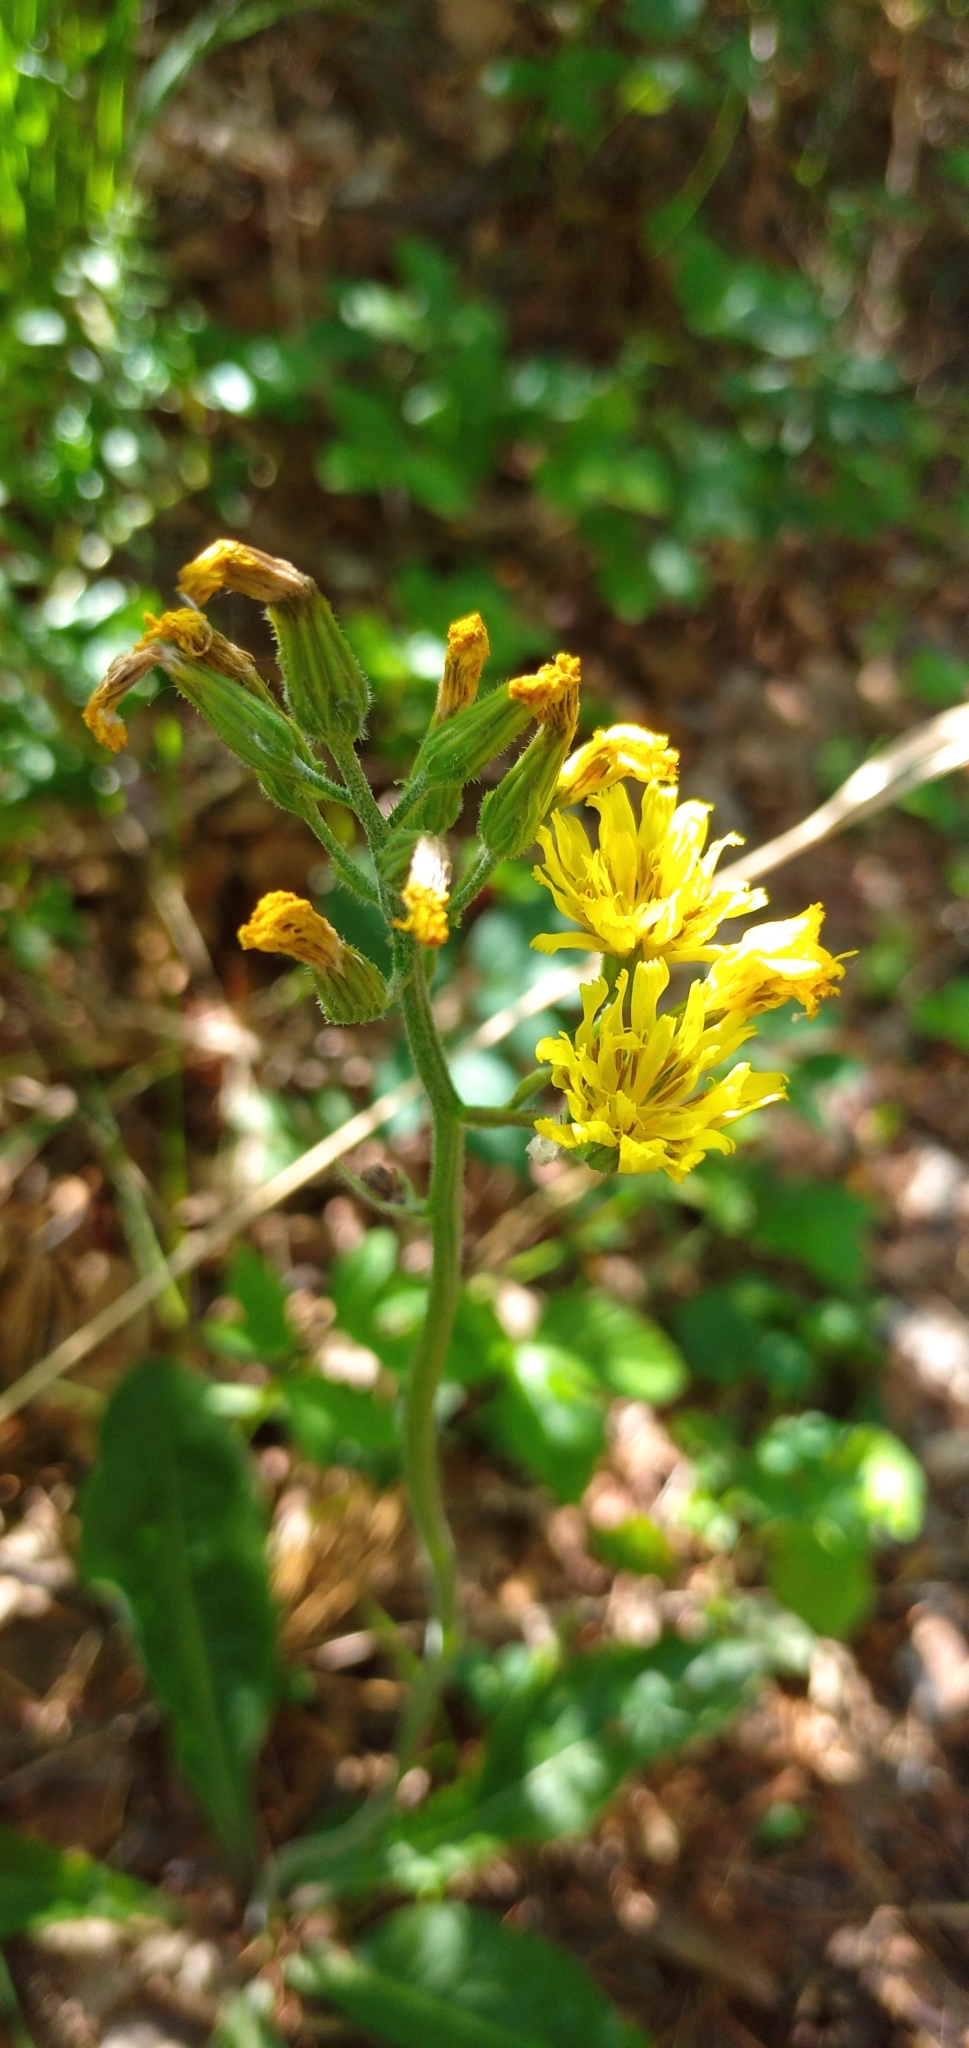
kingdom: Plantae
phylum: Tracheophyta
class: Magnoliopsida
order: Asterales
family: Asteraceae
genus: Crepis
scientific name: Crepis praemorsa
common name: Leafless hawk's-beard
